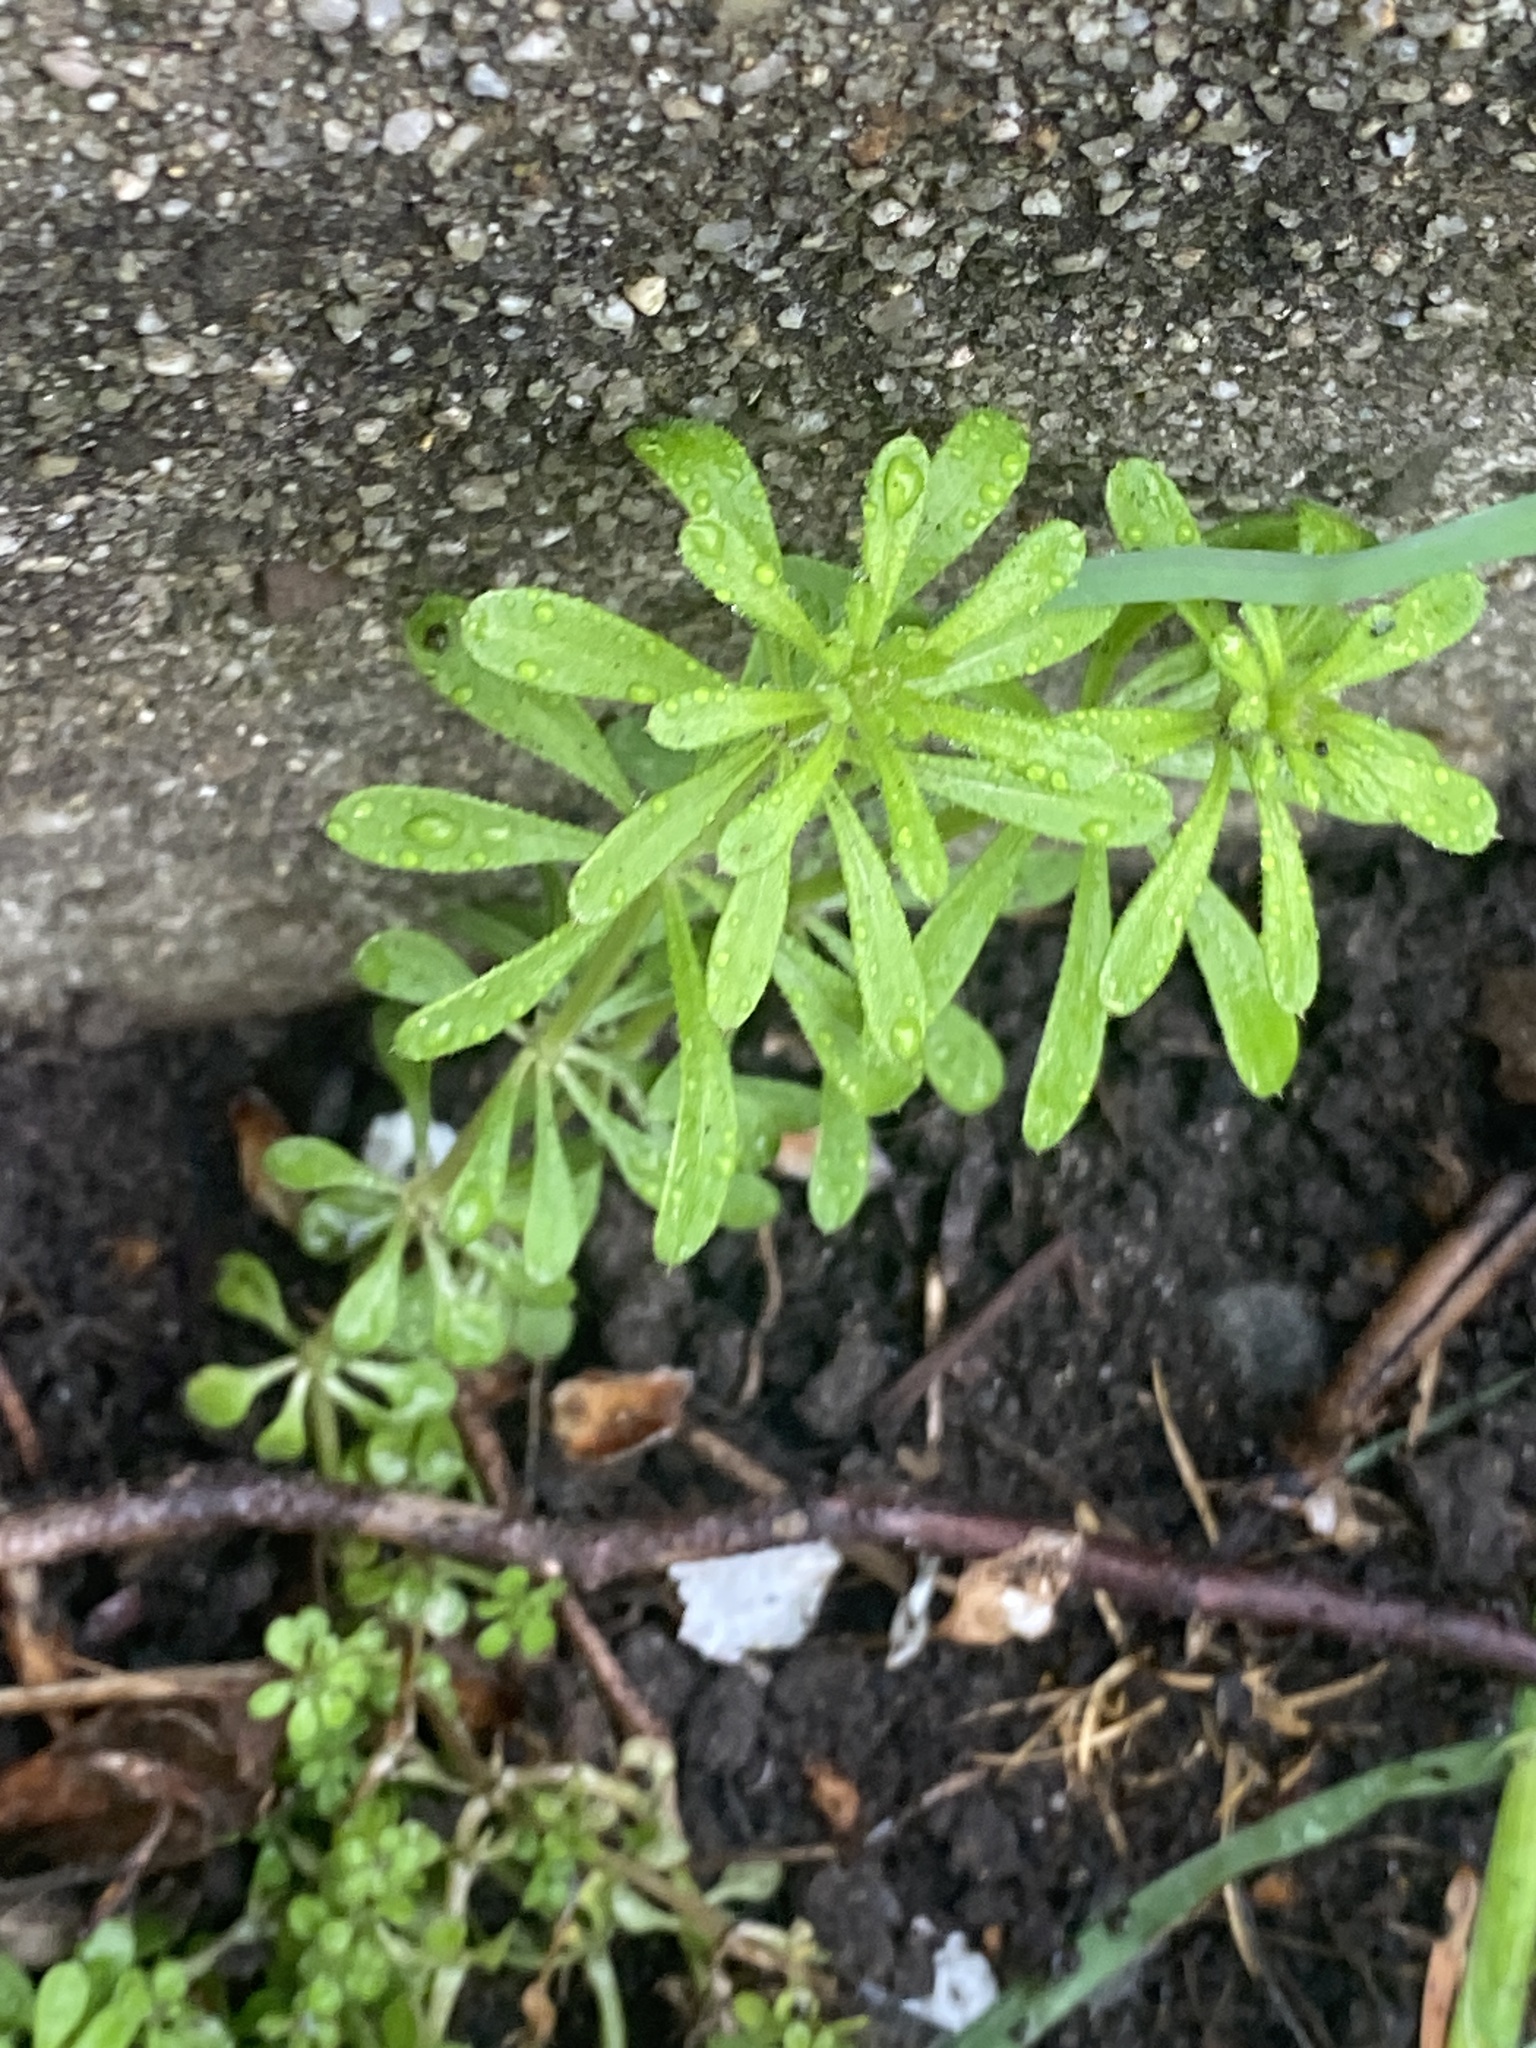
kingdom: Plantae
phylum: Tracheophyta
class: Magnoliopsida
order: Gentianales
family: Rubiaceae
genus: Galium
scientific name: Galium aparine
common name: Cleavers
